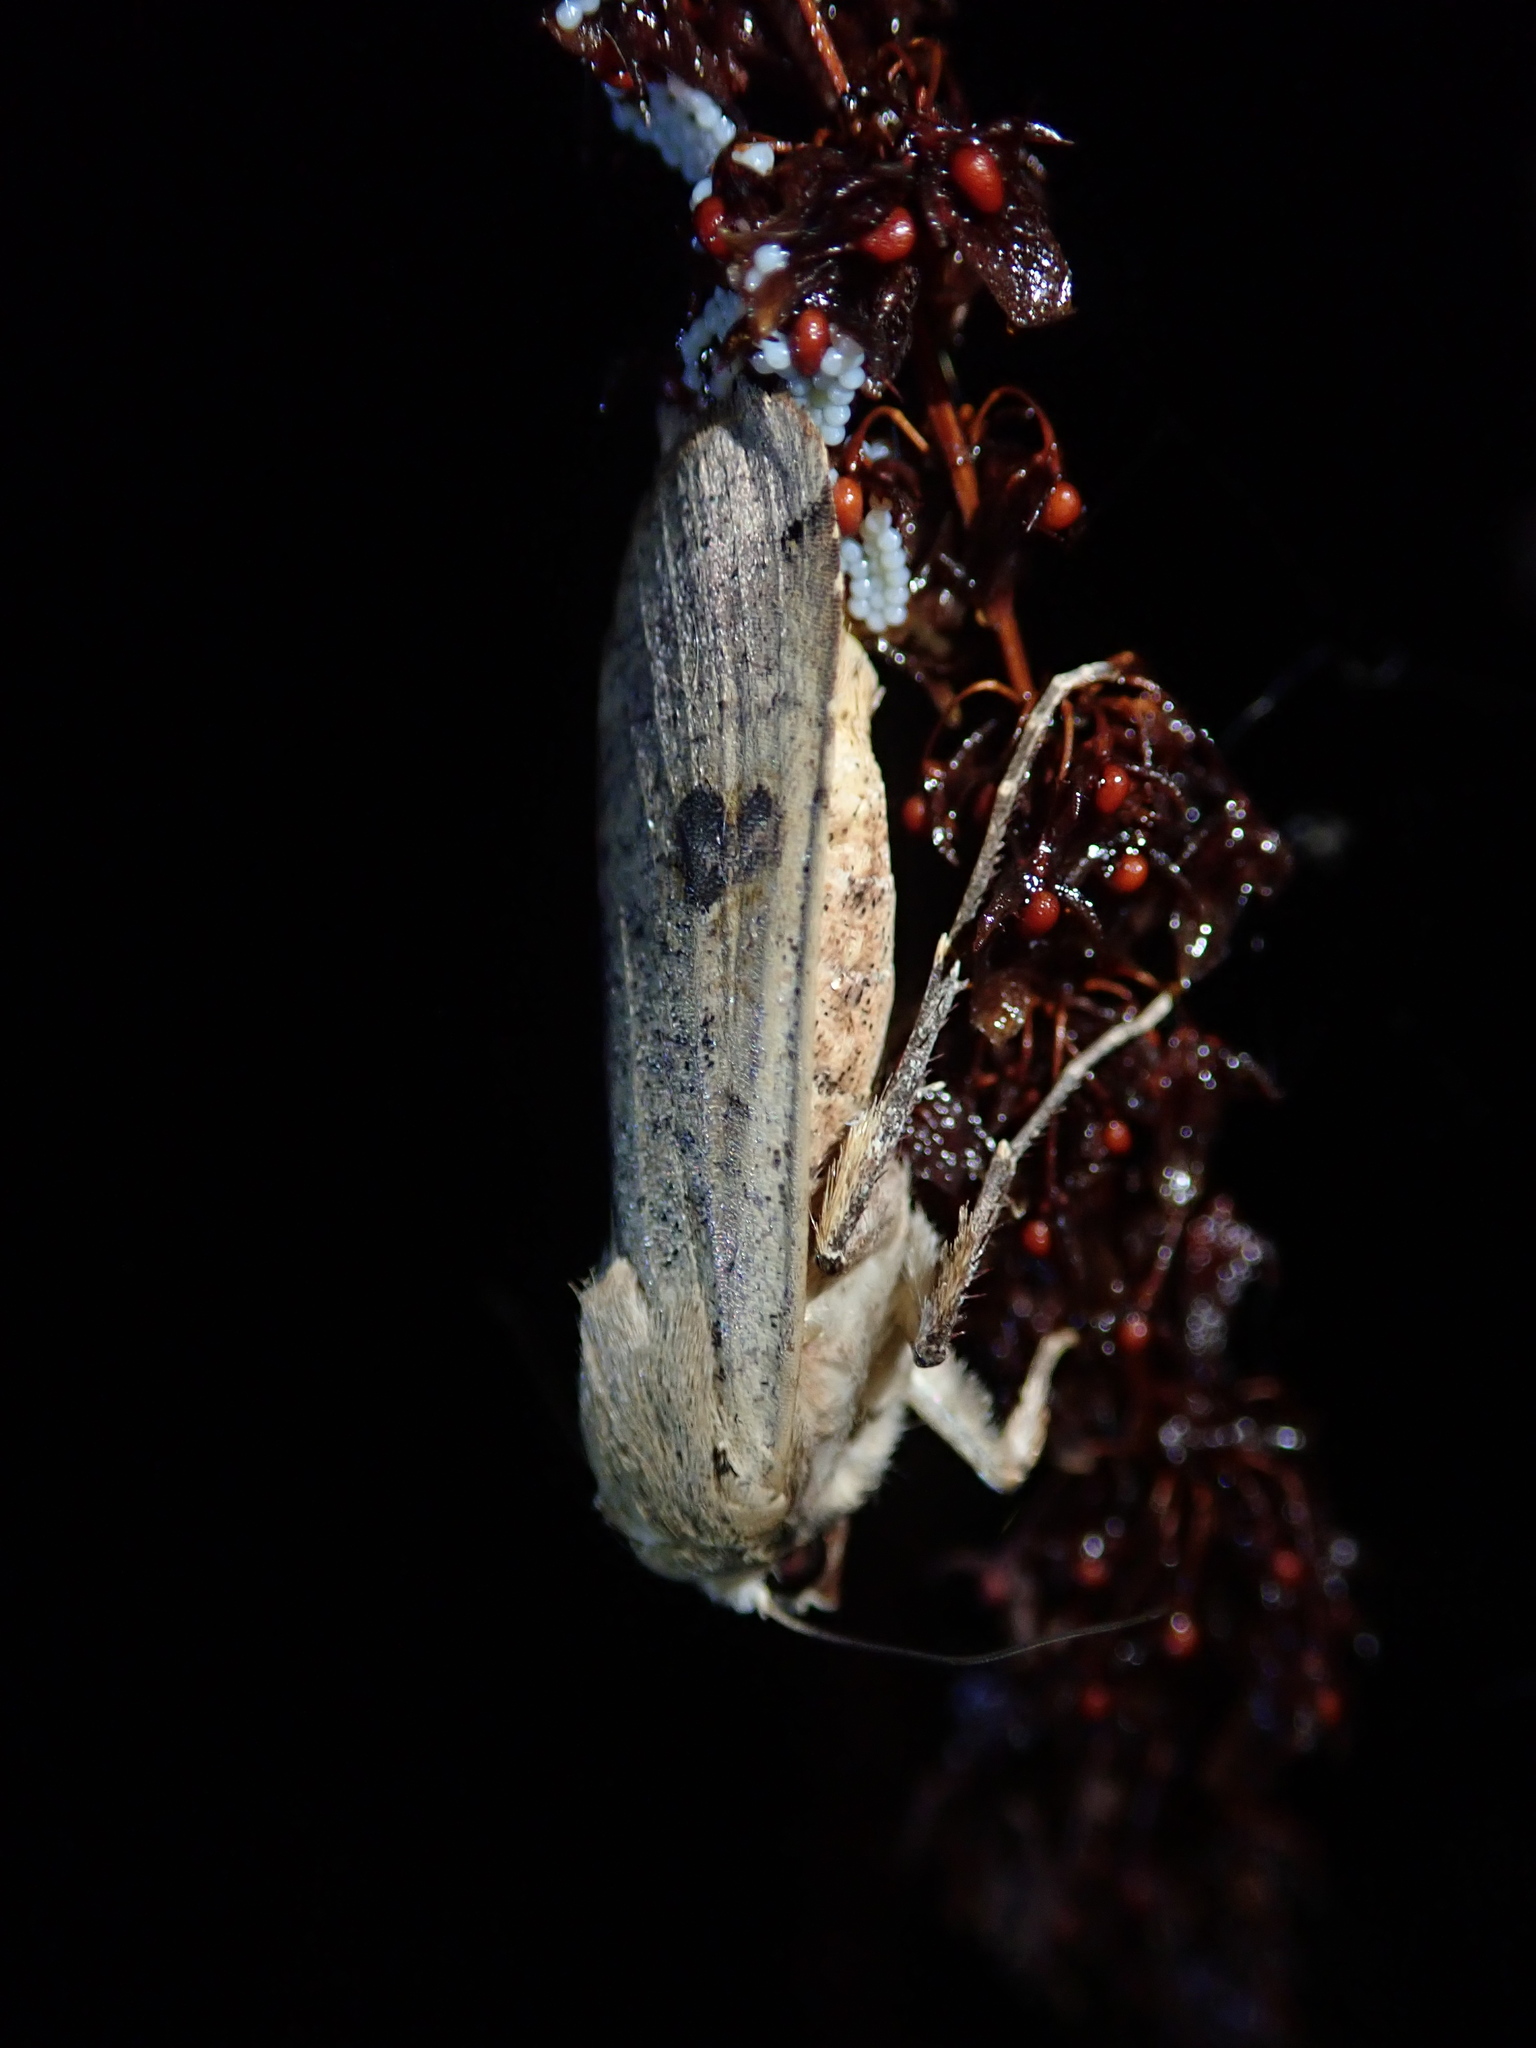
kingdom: Animalia
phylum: Arthropoda
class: Insecta
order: Lepidoptera
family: Noctuidae
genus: Noctua
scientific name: Noctua pronuba
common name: Large yellow underwing
